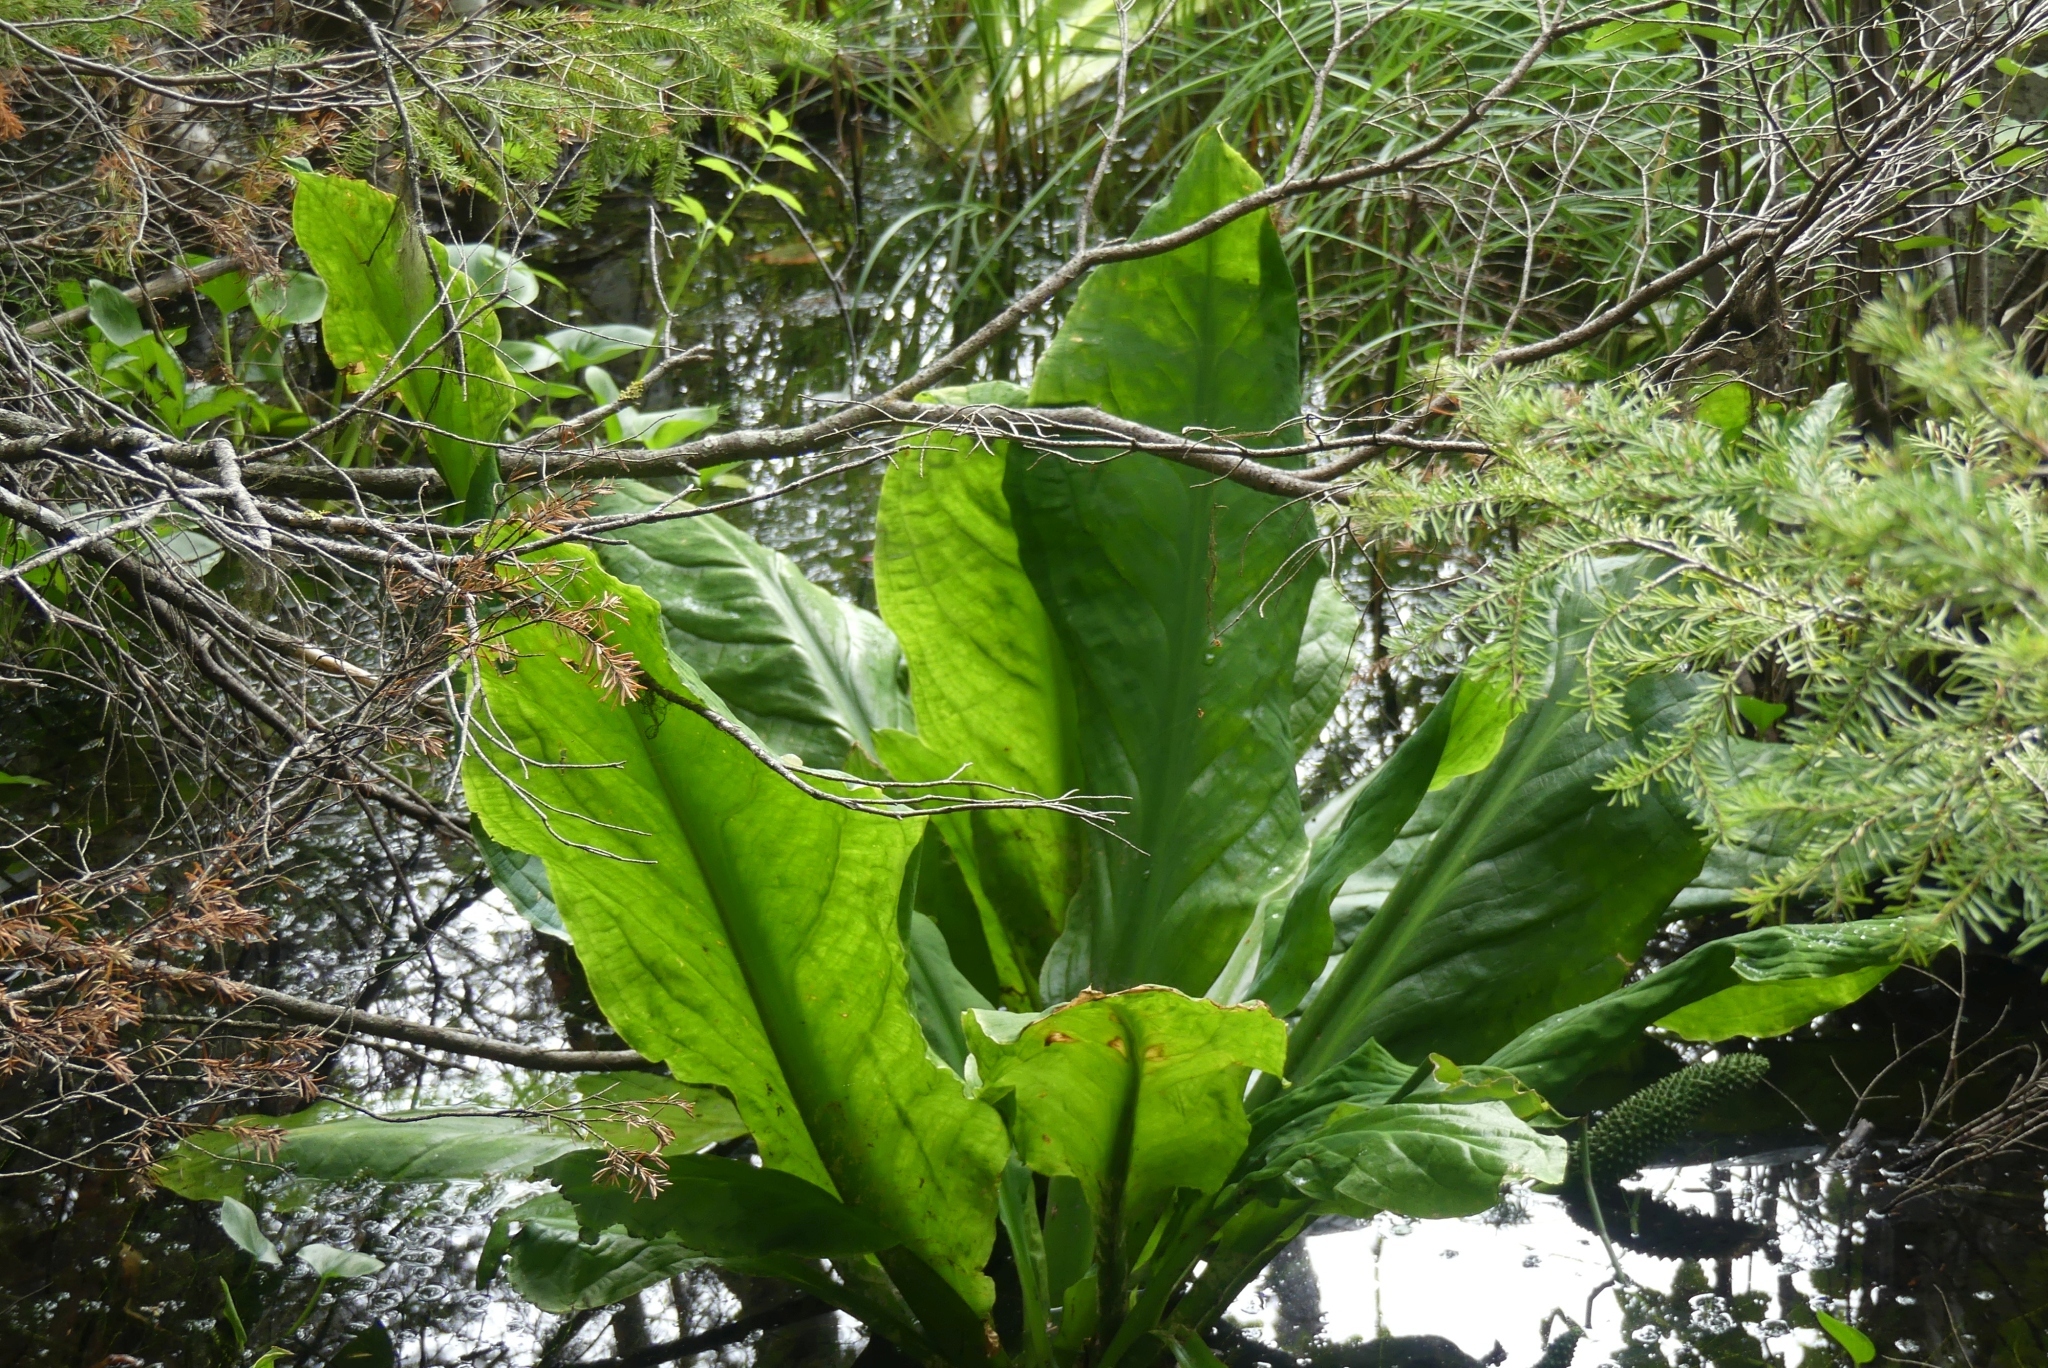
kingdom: Plantae
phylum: Tracheophyta
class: Liliopsida
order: Alismatales
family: Araceae
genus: Lysichiton
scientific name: Lysichiton americanus
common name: American skunk cabbage
